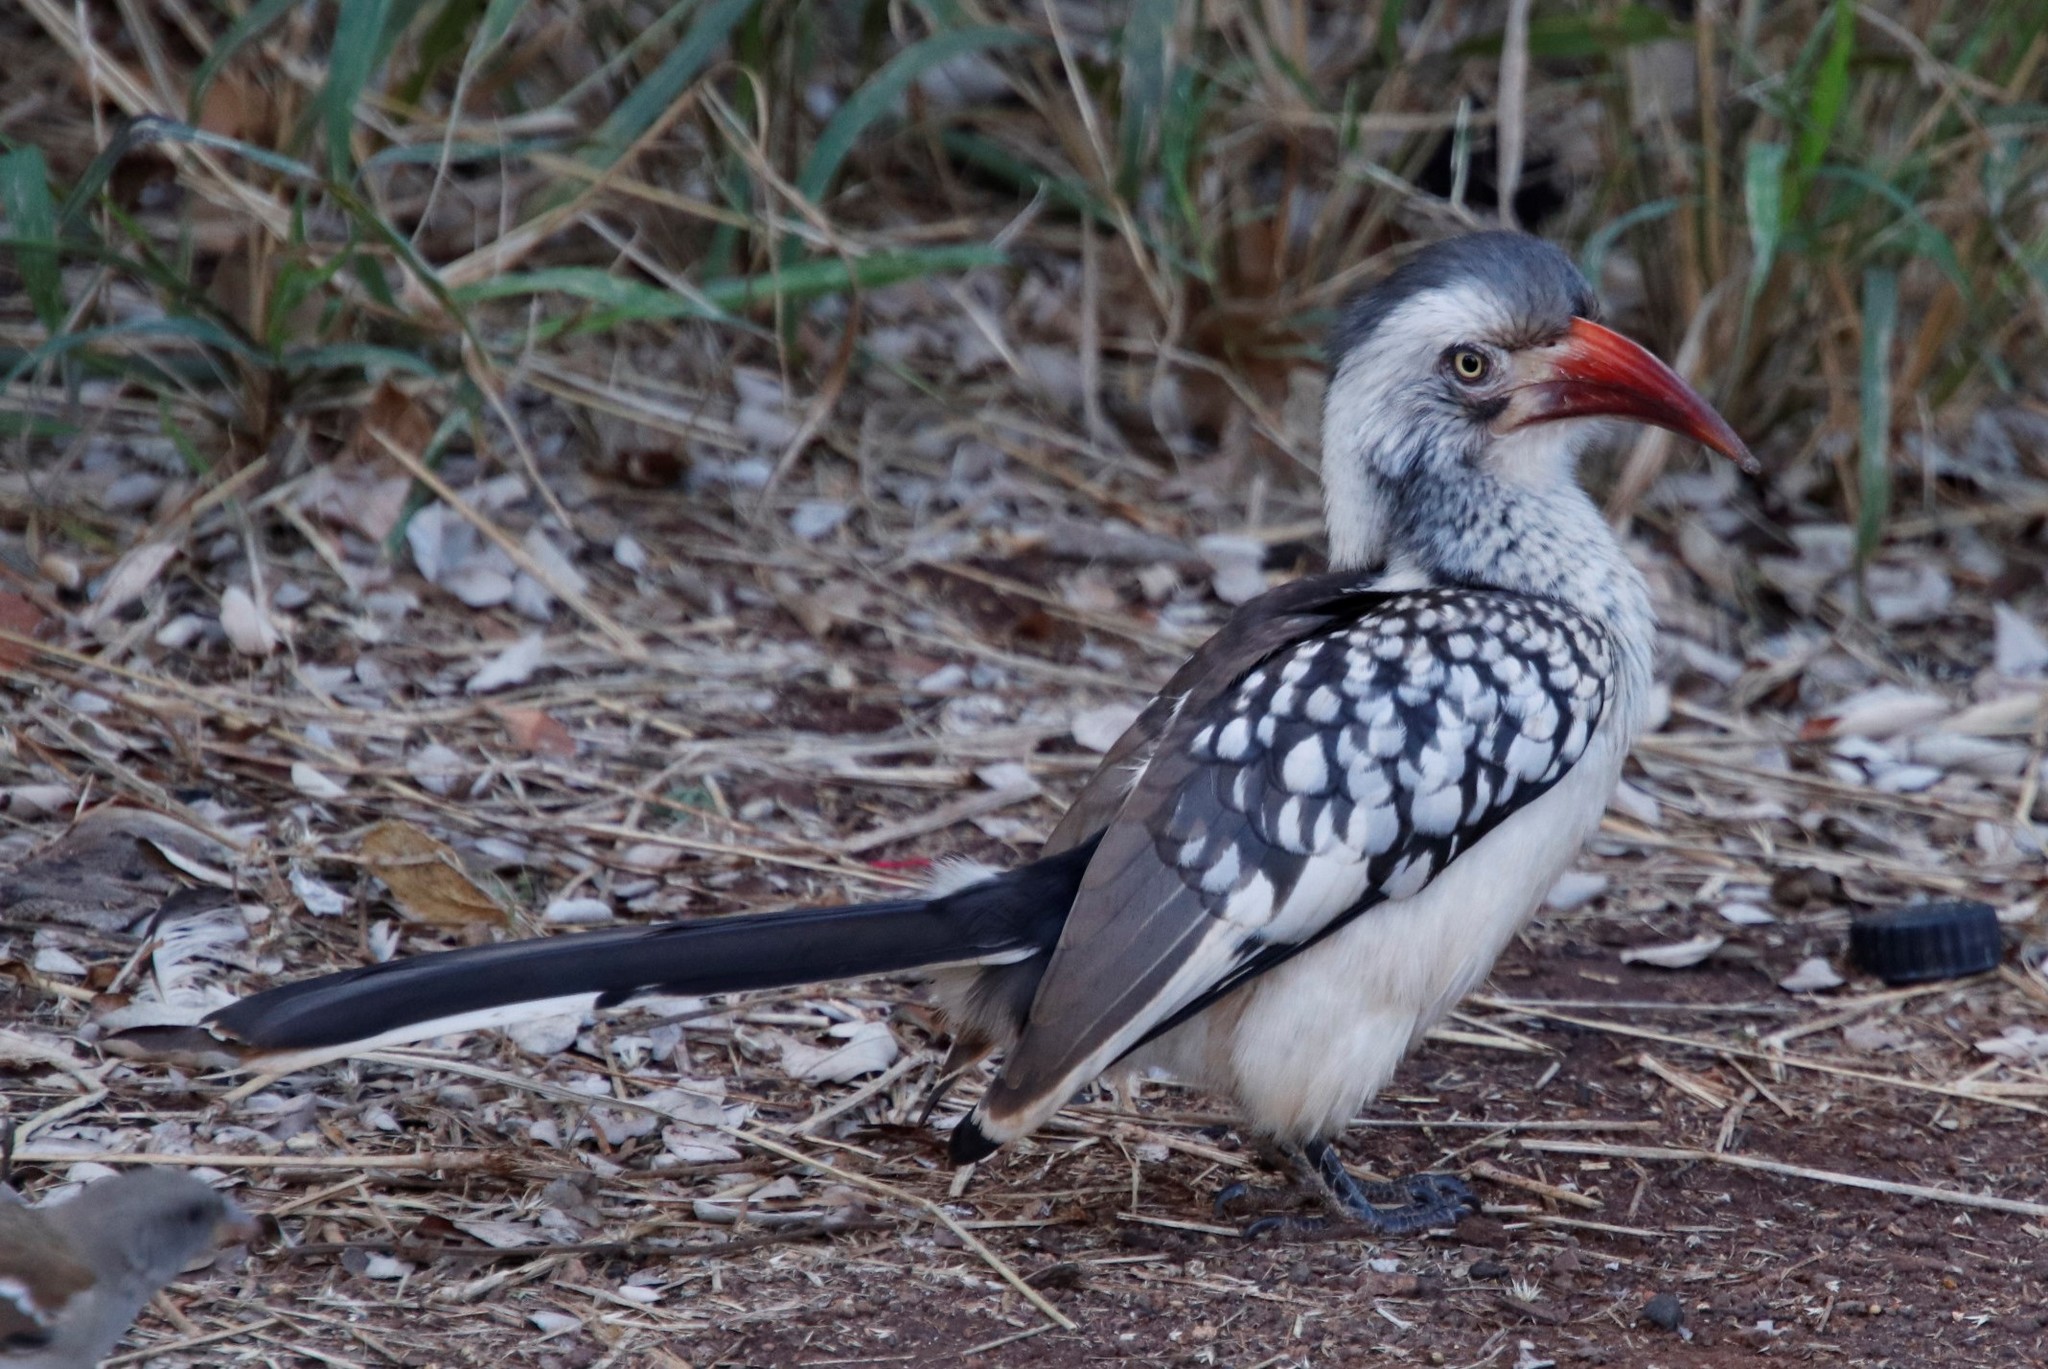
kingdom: Animalia
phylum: Chordata
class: Aves
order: Bucerotiformes
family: Bucerotidae
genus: Tockus
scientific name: Tockus rufirostris
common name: Southern red-billed hornbill
